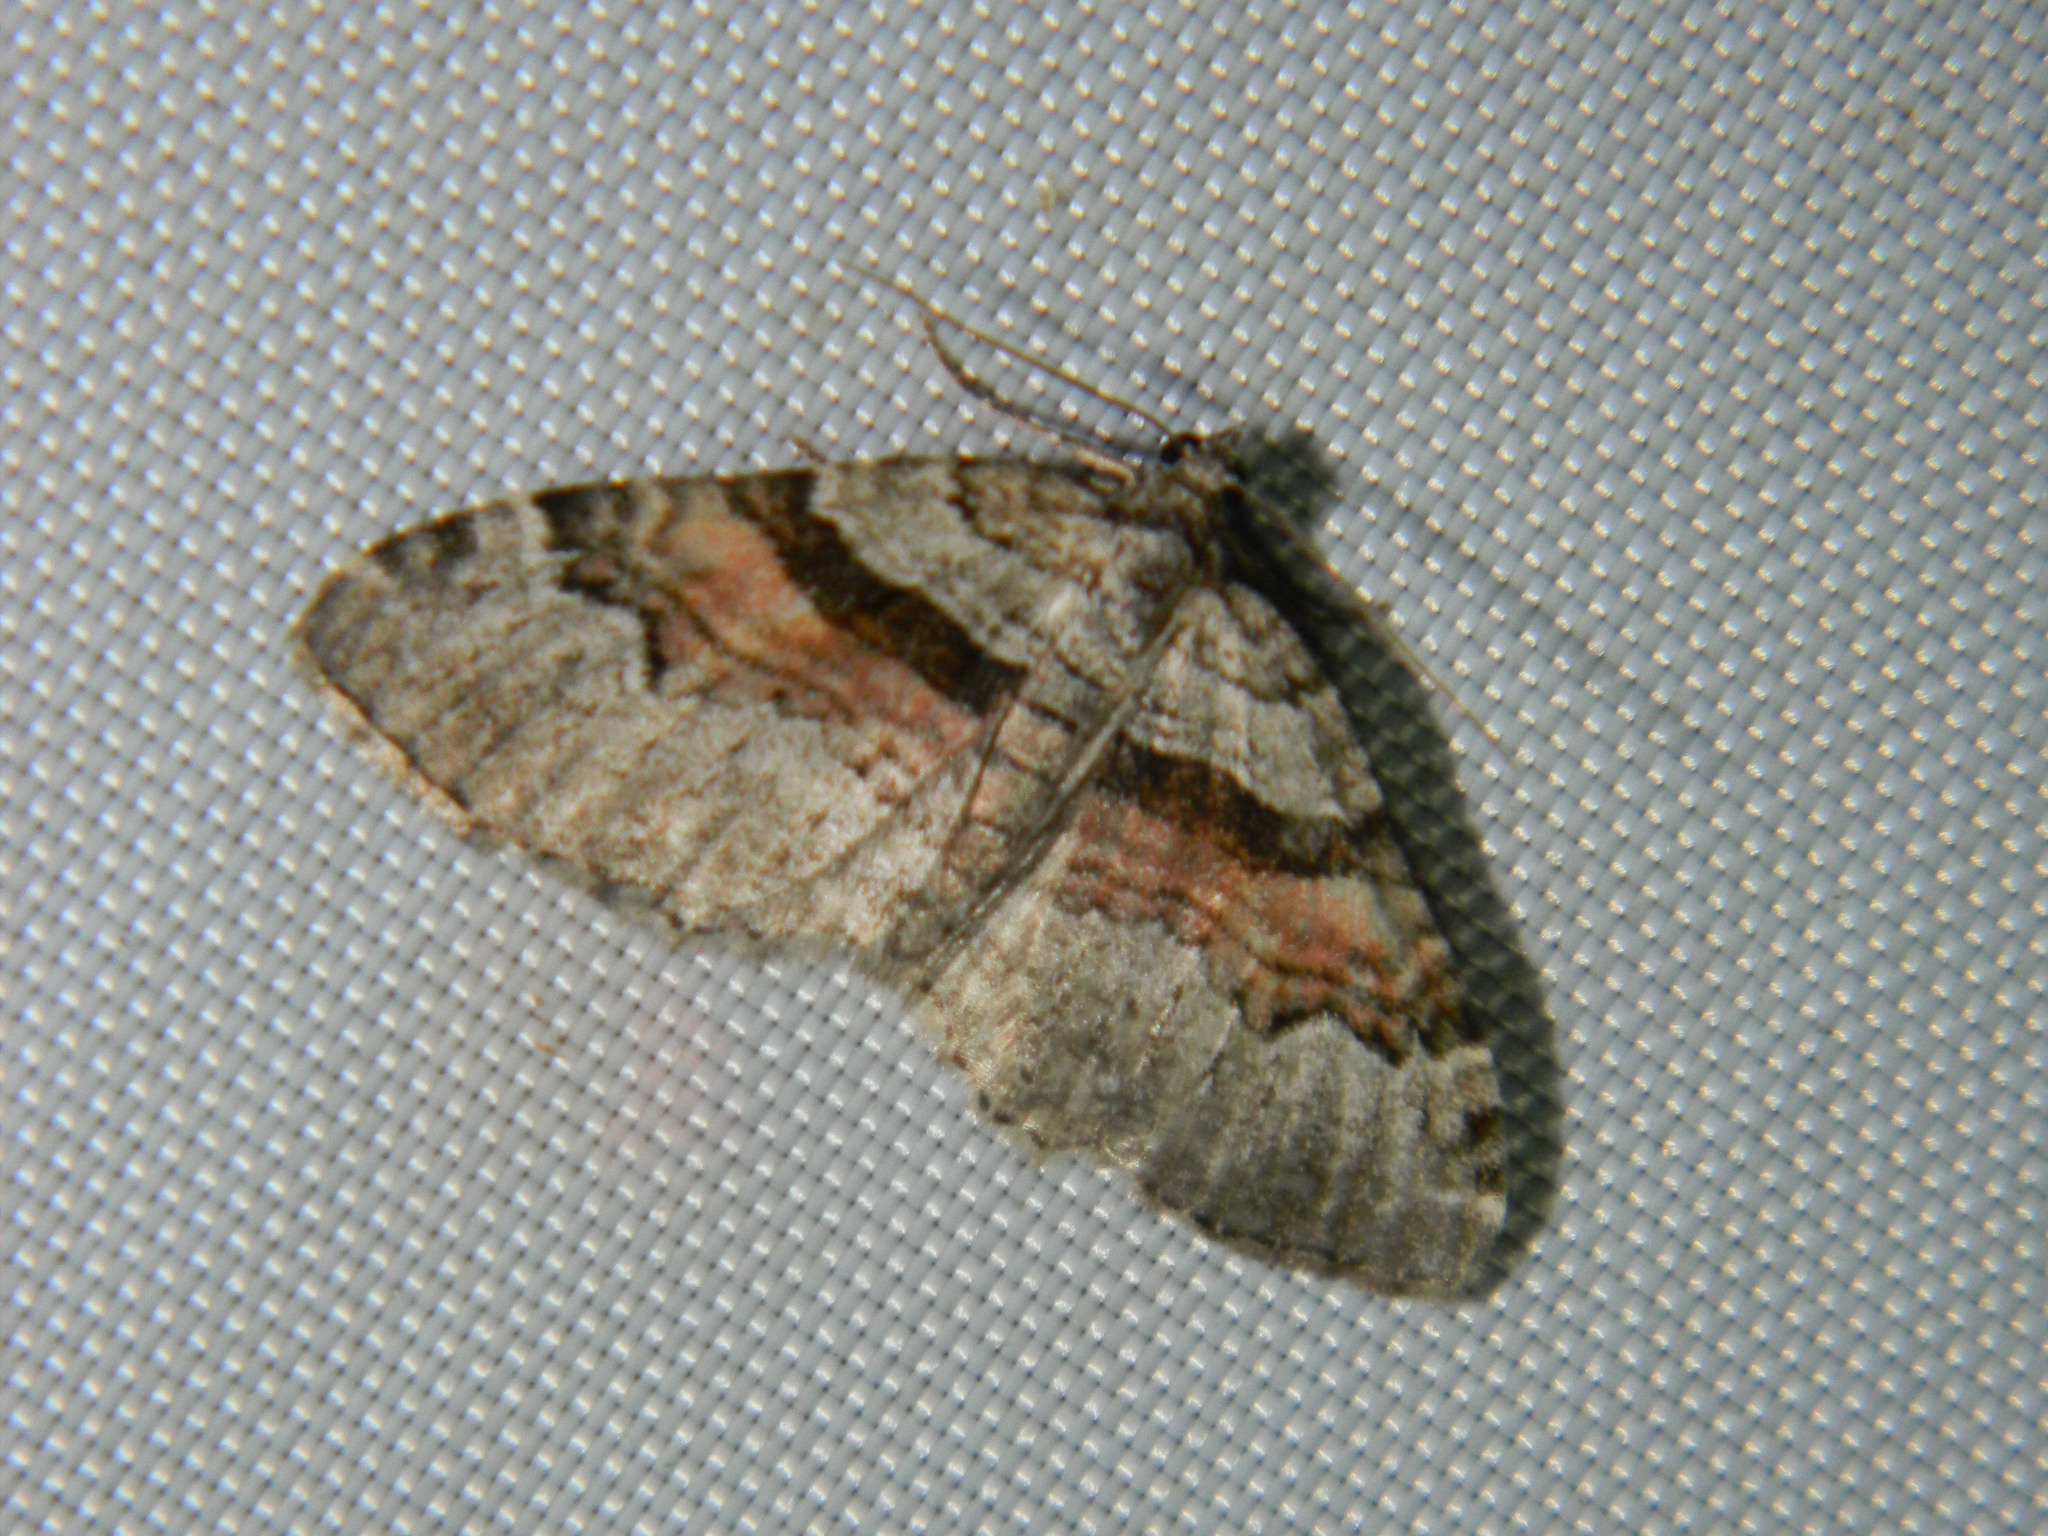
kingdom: Animalia
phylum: Arthropoda
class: Insecta
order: Lepidoptera
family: Geometridae
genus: Xanthorhoe
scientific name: Xanthorhoe packardata
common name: Packard's carpet
